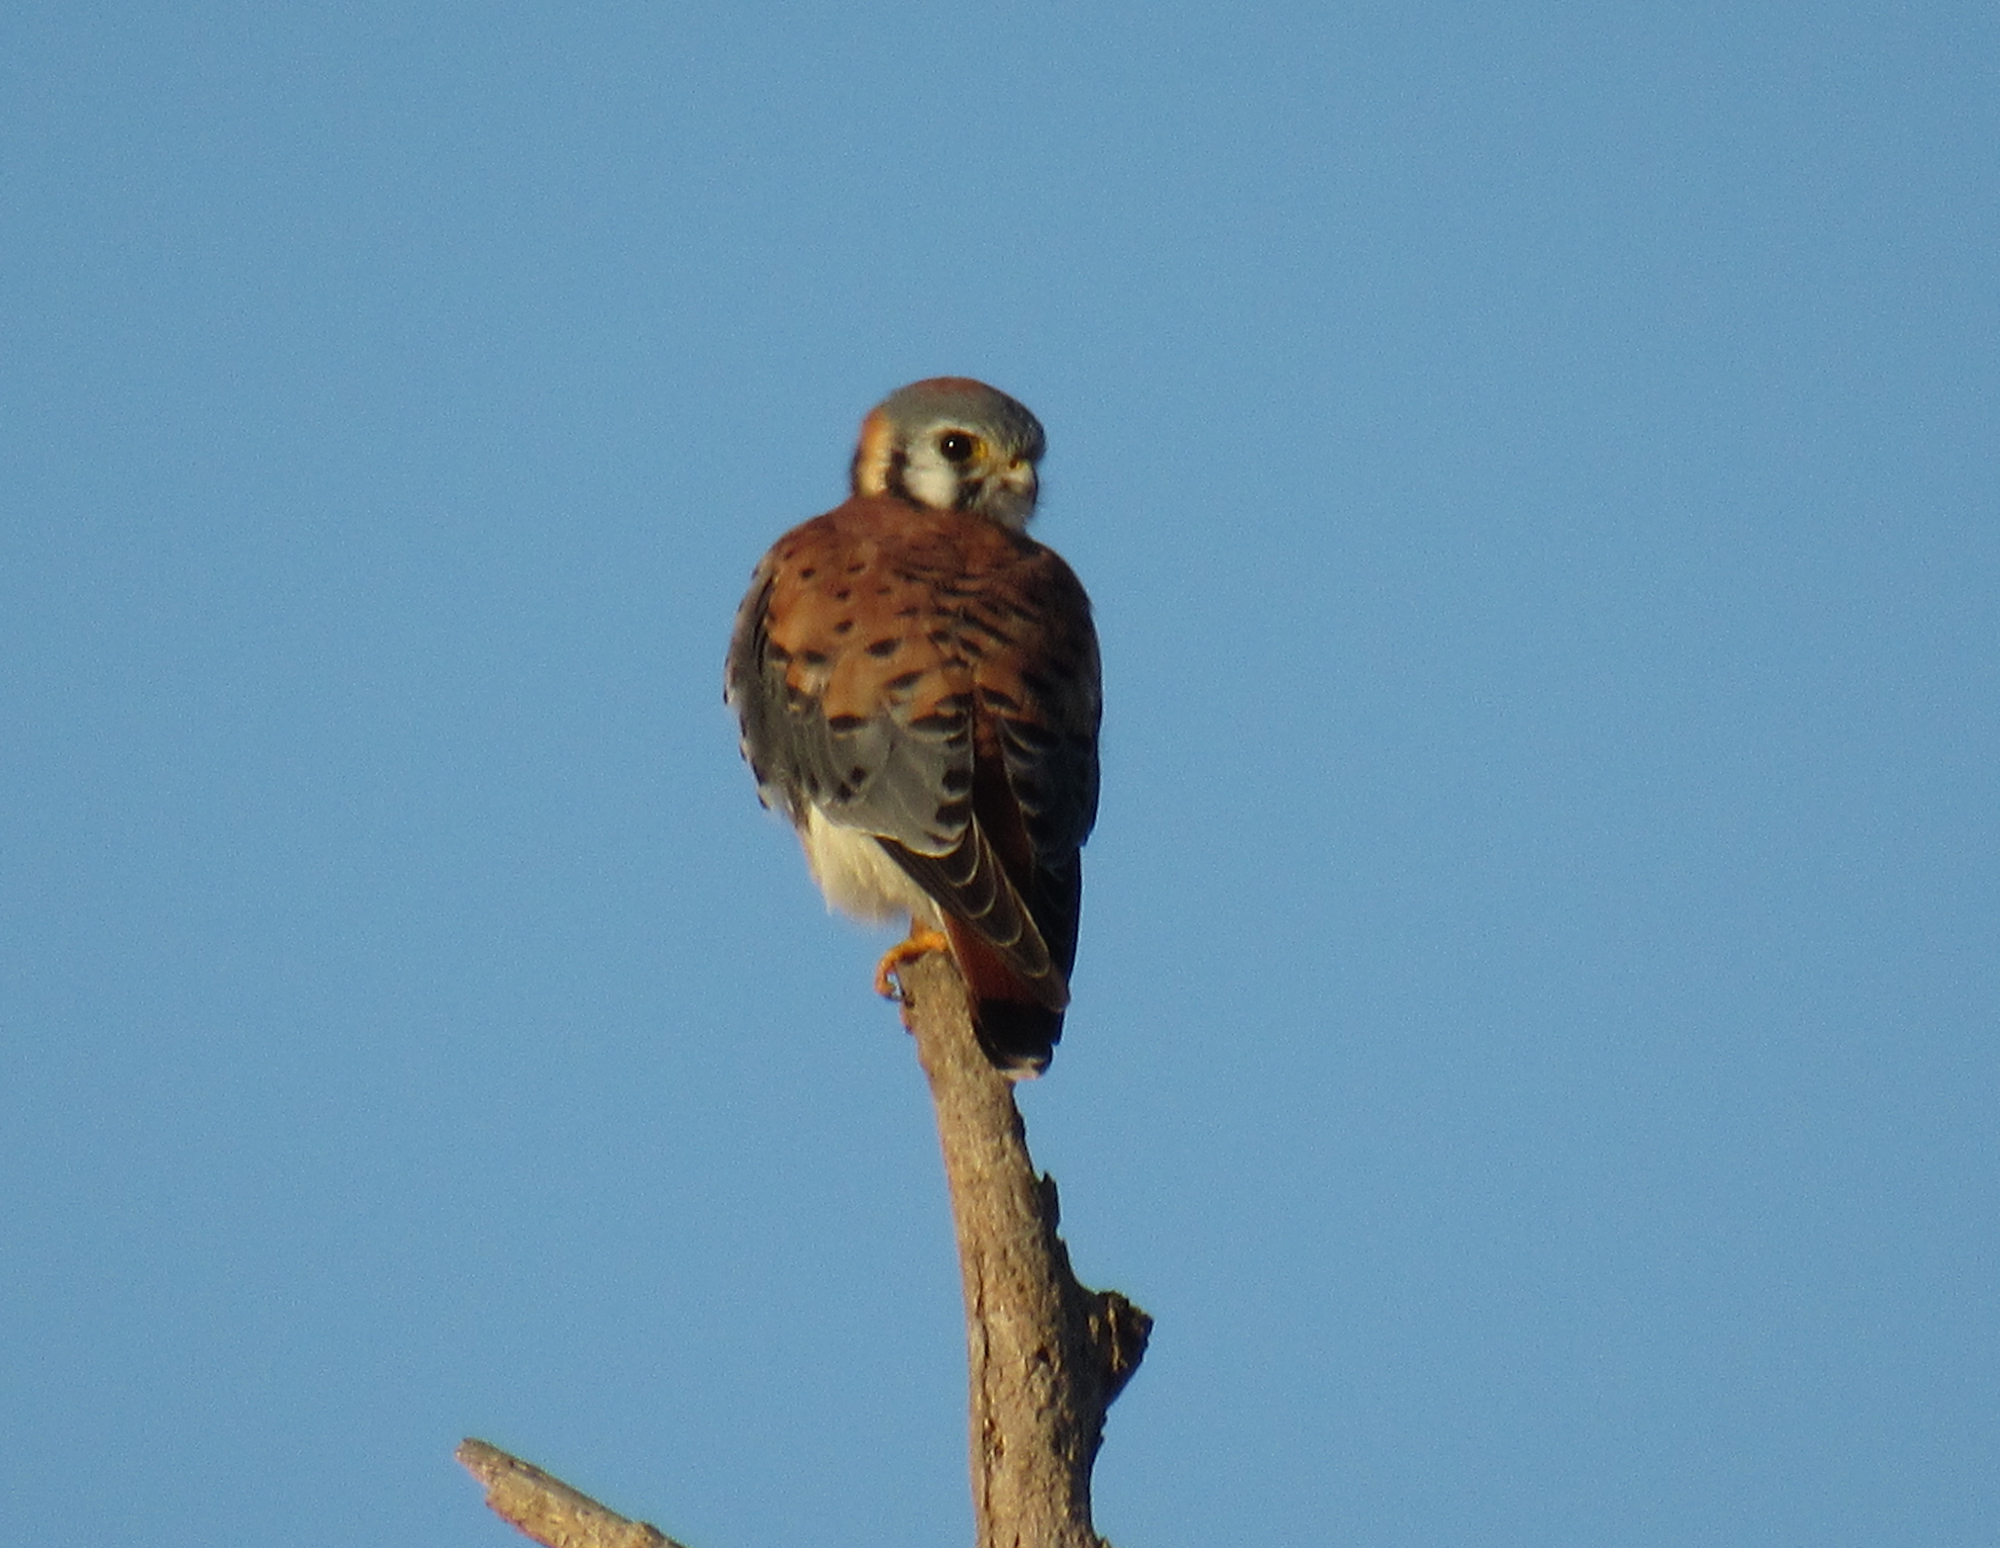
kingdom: Animalia
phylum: Chordata
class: Aves
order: Falconiformes
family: Falconidae
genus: Falco
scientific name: Falco sparverius
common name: American kestrel
